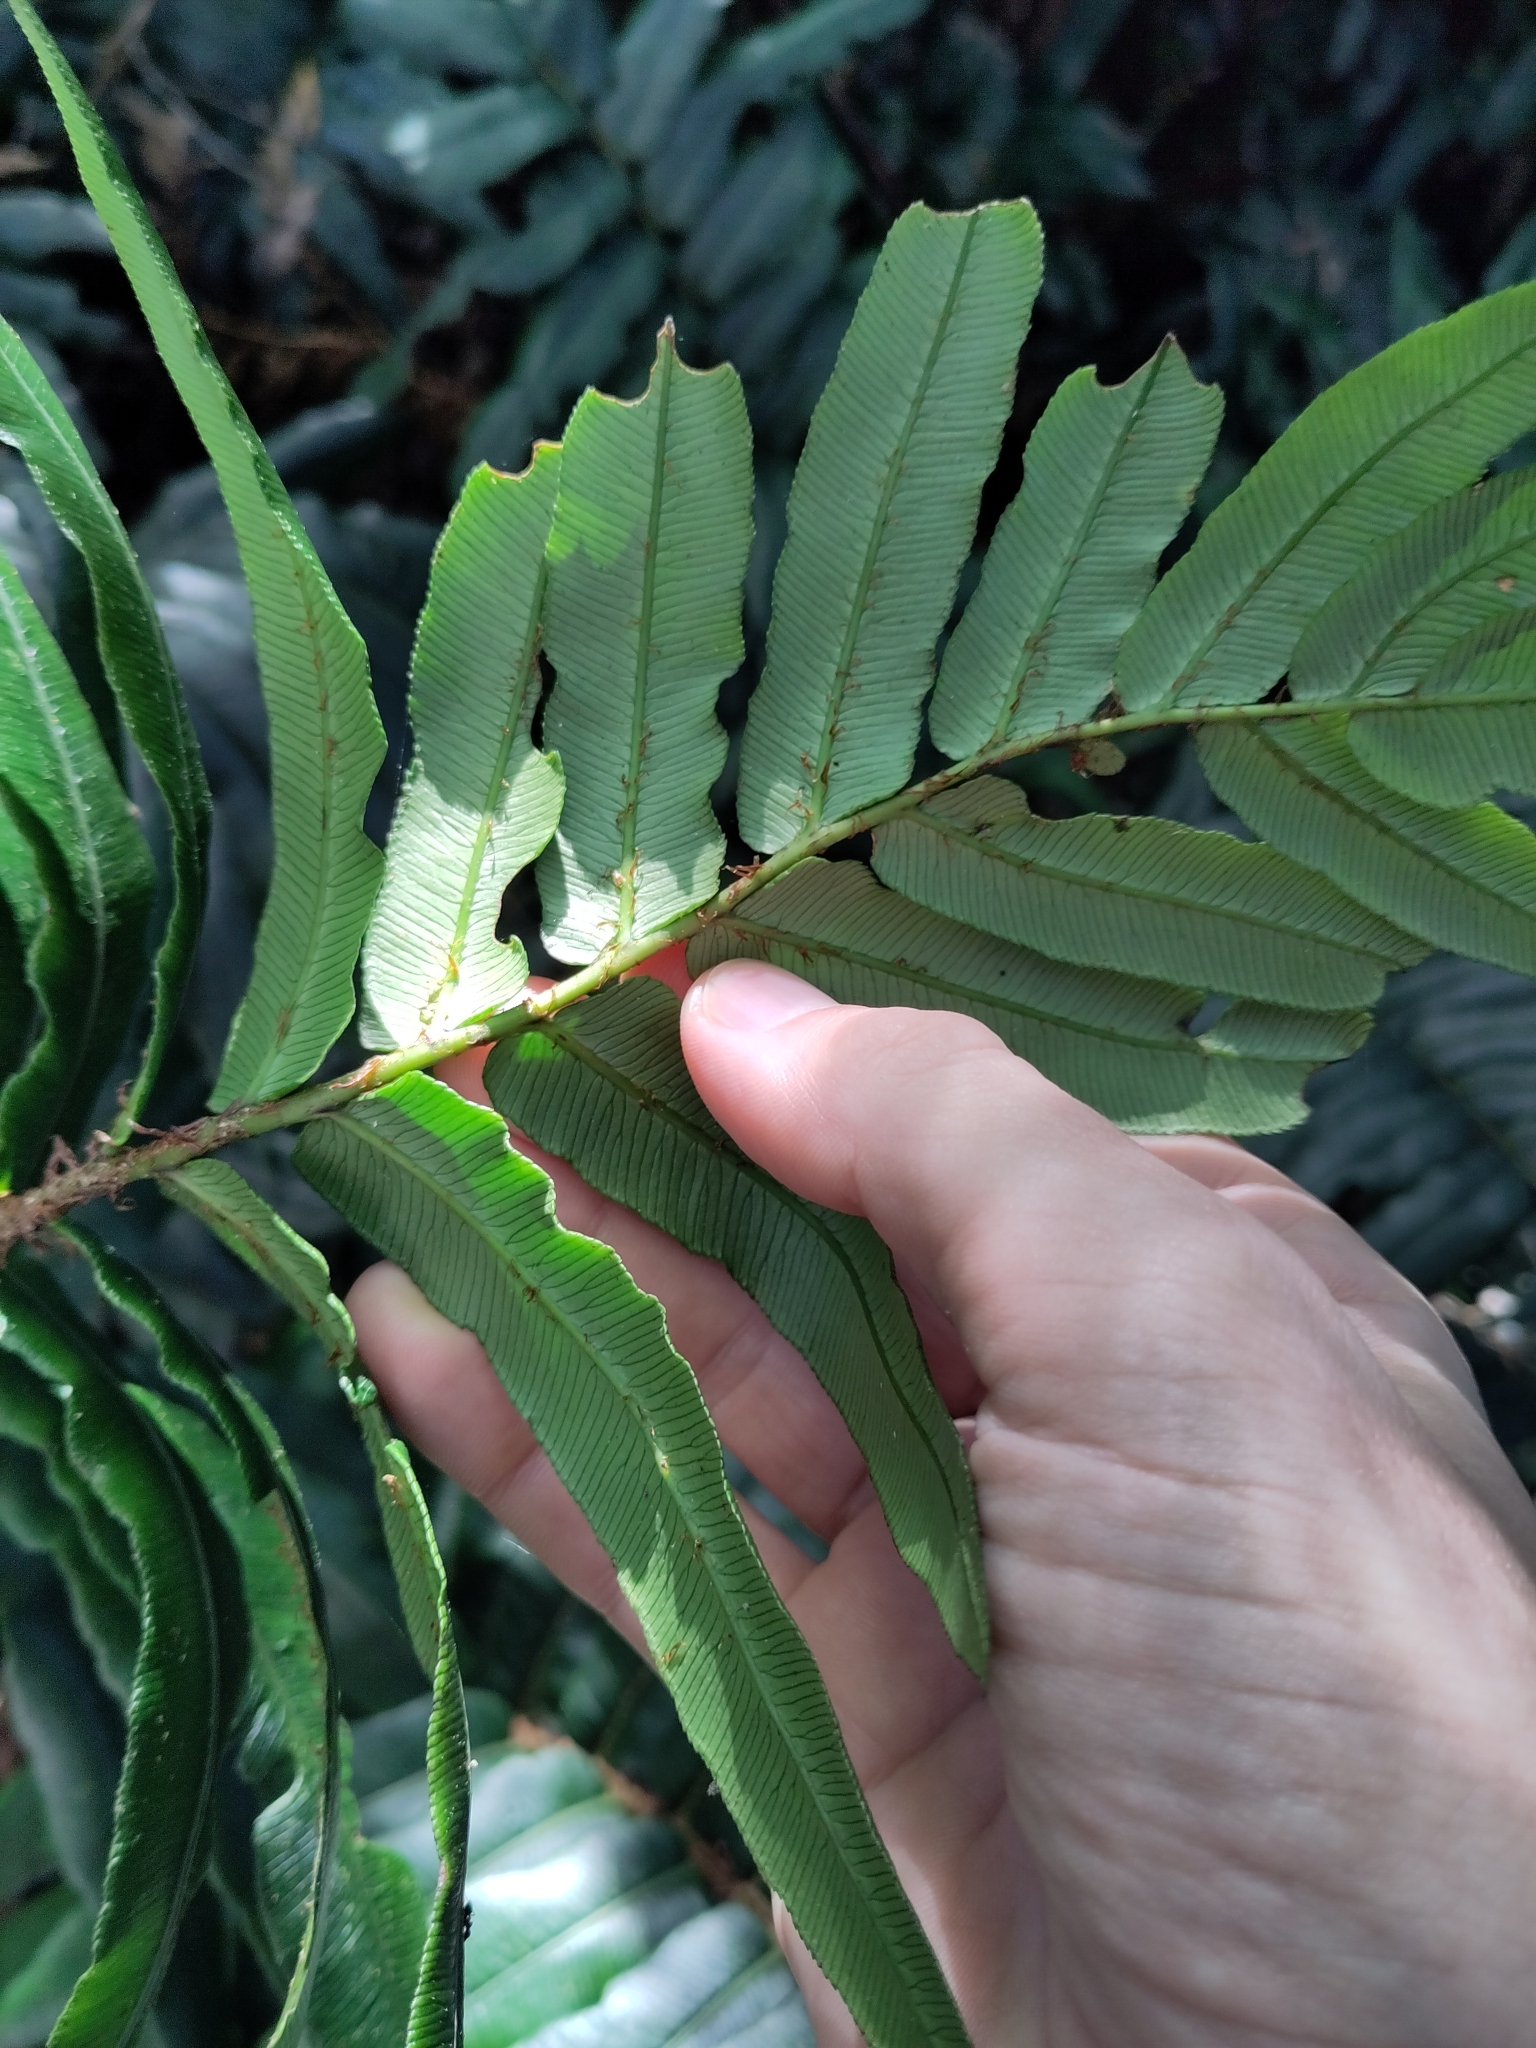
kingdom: Plantae
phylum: Tracheophyta
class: Polypodiopsida
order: Polypodiales
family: Blechnaceae
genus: Parablechnum
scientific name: Parablechnum wattsii
